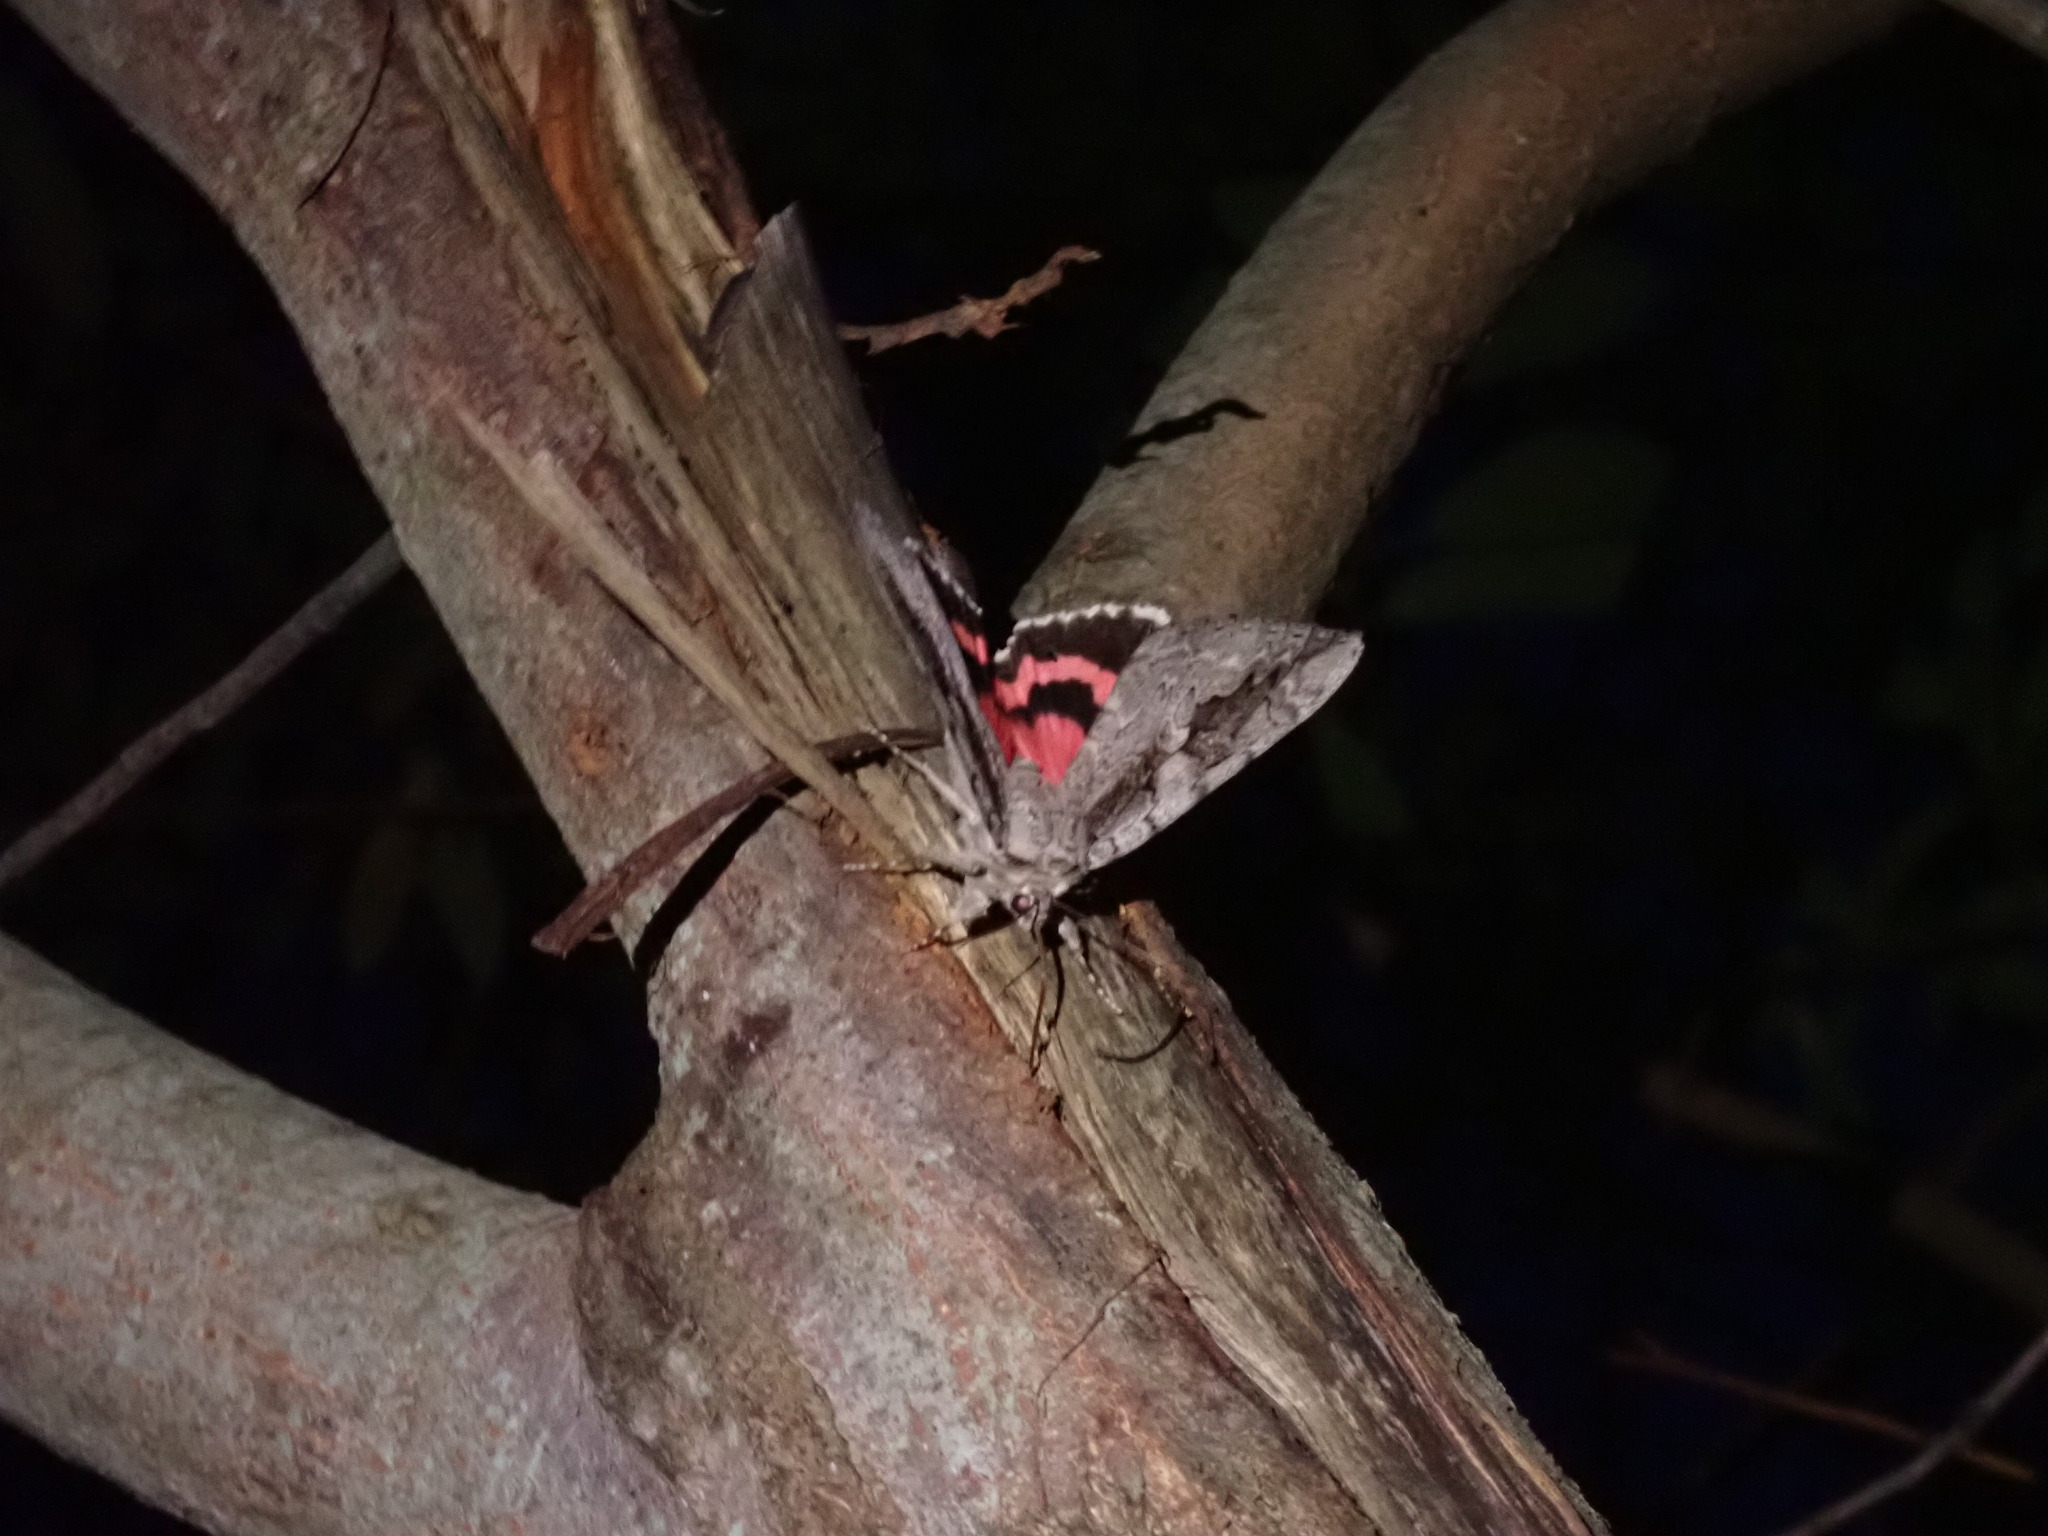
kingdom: Animalia
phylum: Arthropoda
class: Insecta
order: Lepidoptera
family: Erebidae
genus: Catocala
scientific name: Catocala amatrix
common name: Sweetheart underwing
